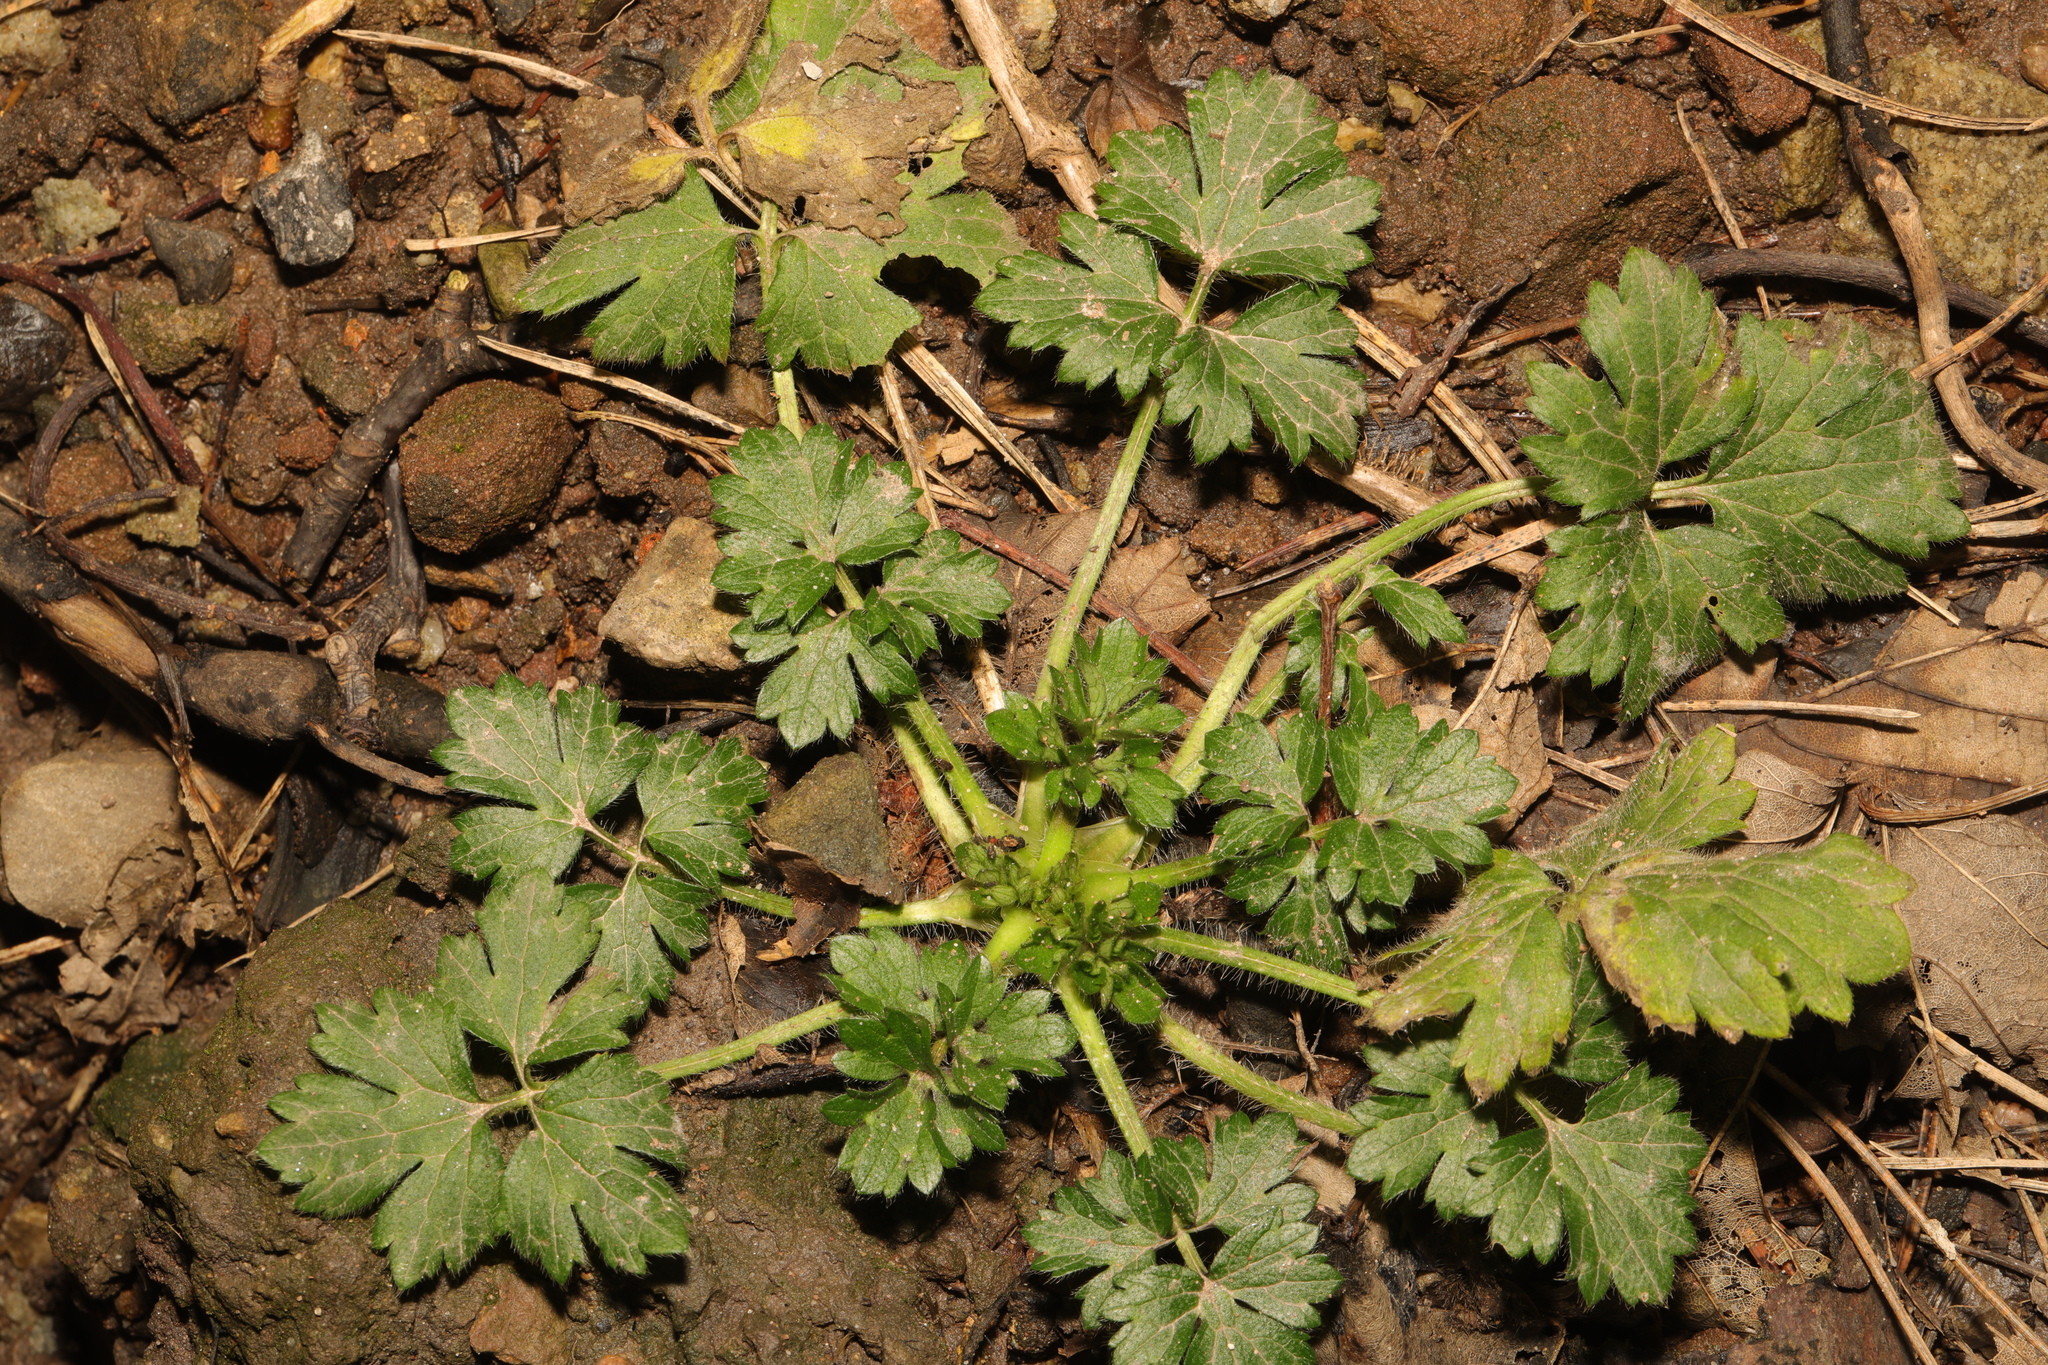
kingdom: Plantae
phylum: Tracheophyta
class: Magnoliopsida
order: Ranunculales
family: Ranunculaceae
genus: Ranunculus
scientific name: Ranunculus repens
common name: Creeping buttercup
